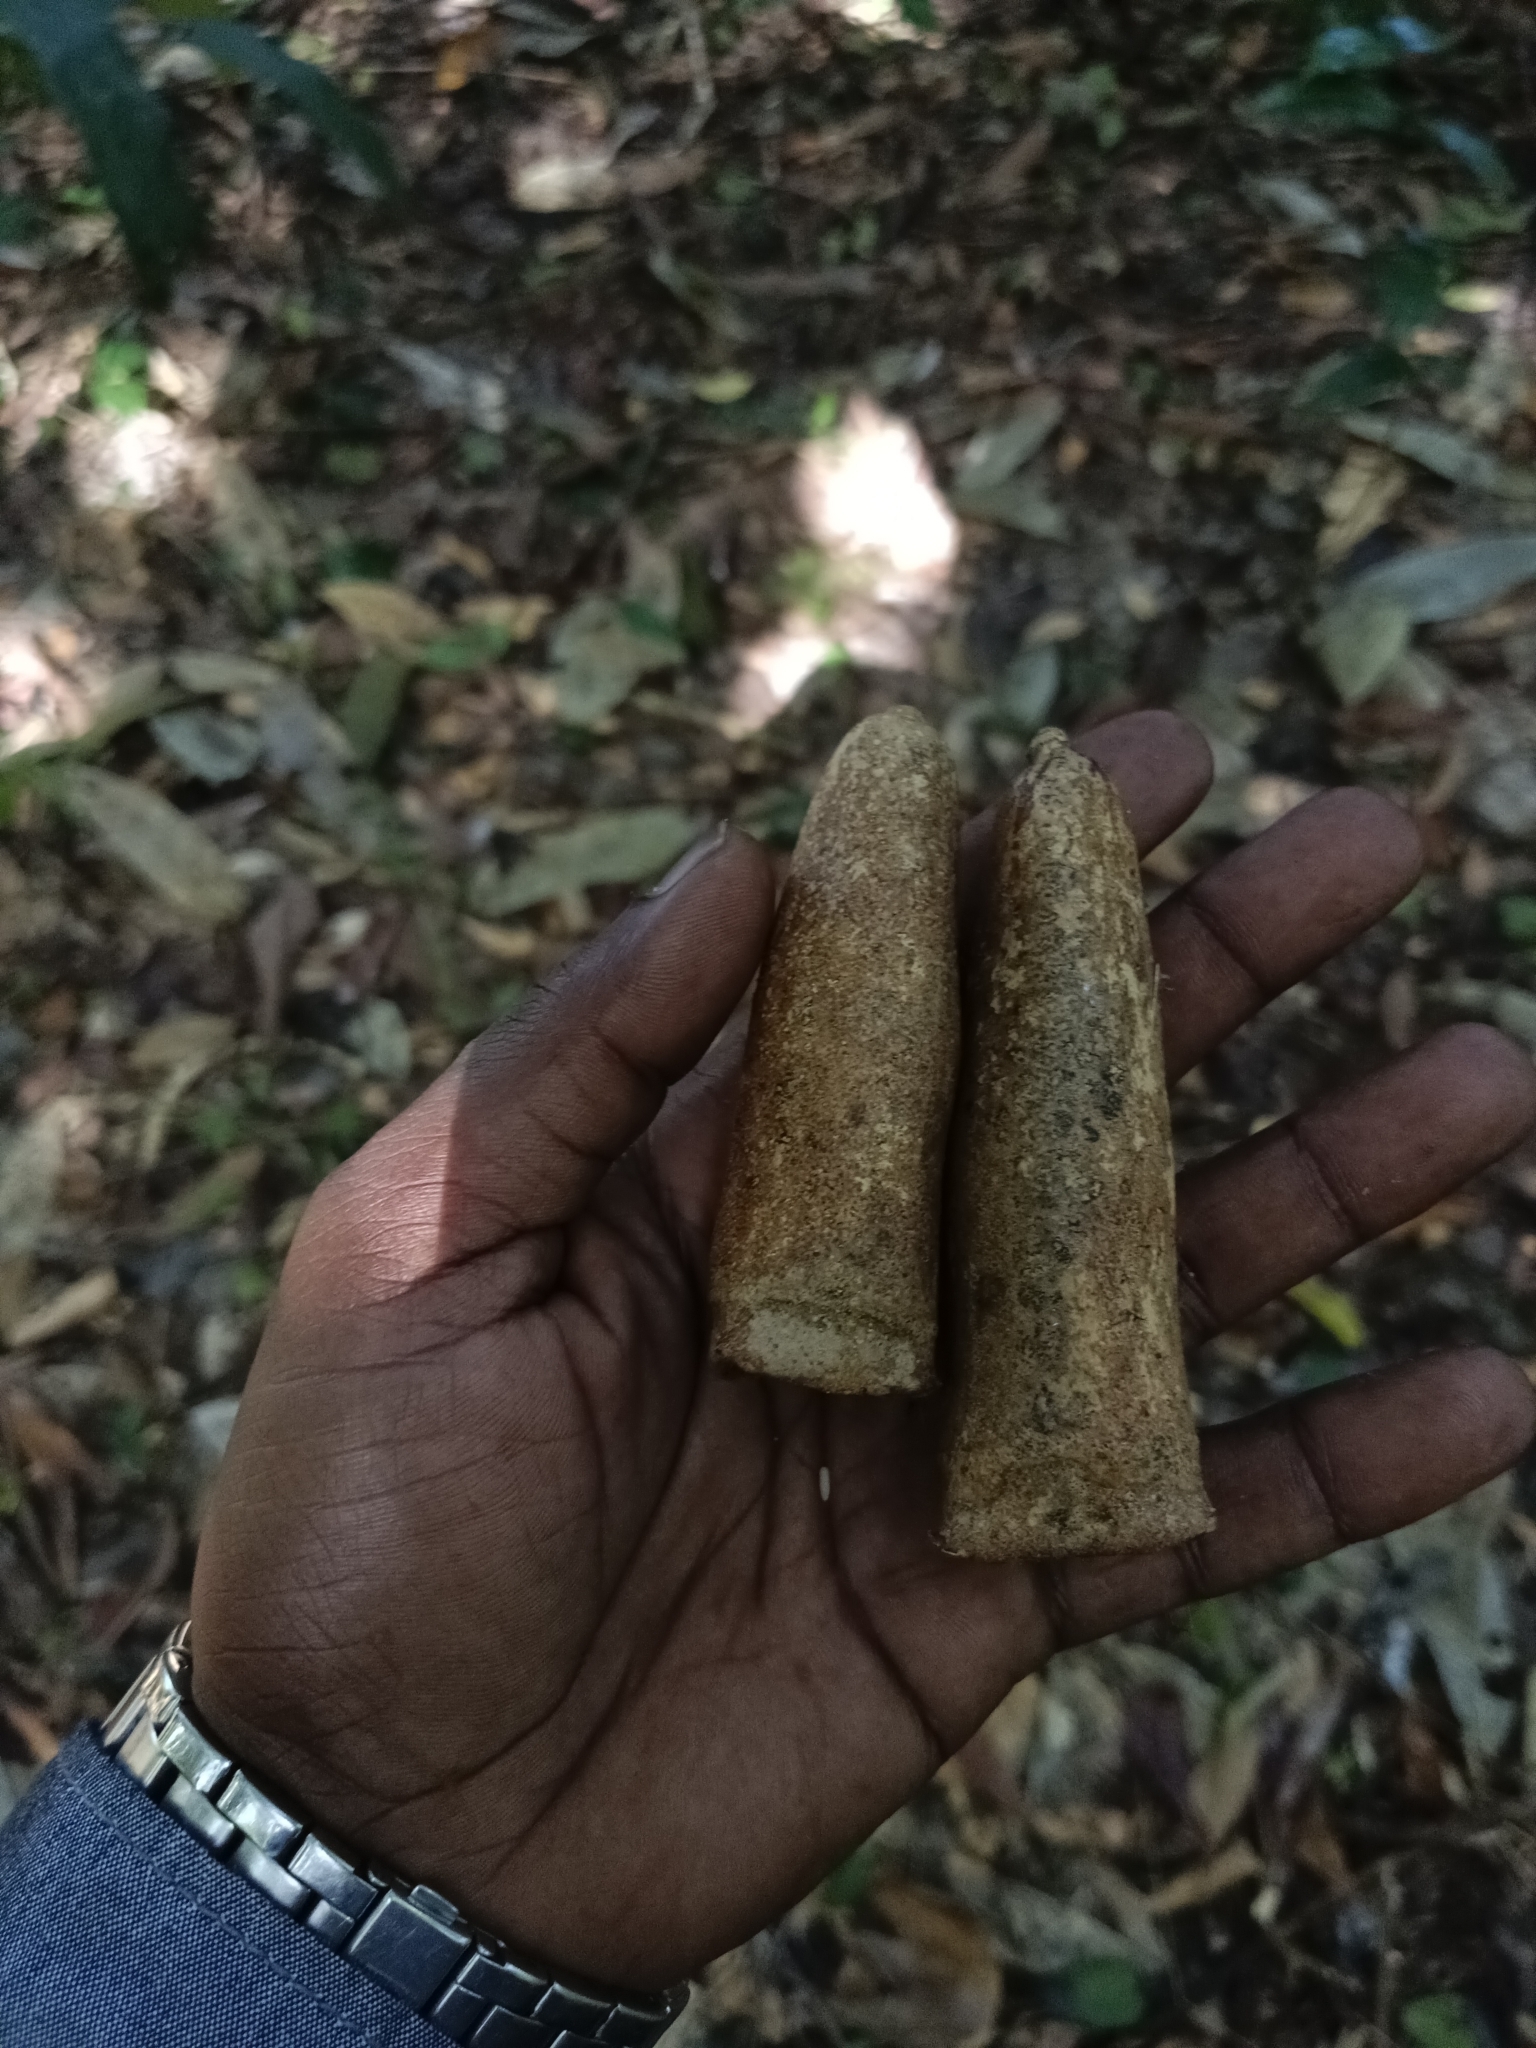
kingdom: Plantae
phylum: Tracheophyta
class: Magnoliopsida
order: Cucurbitales
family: Cucurbitaceae
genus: Zanonia
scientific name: Zanonia indica
